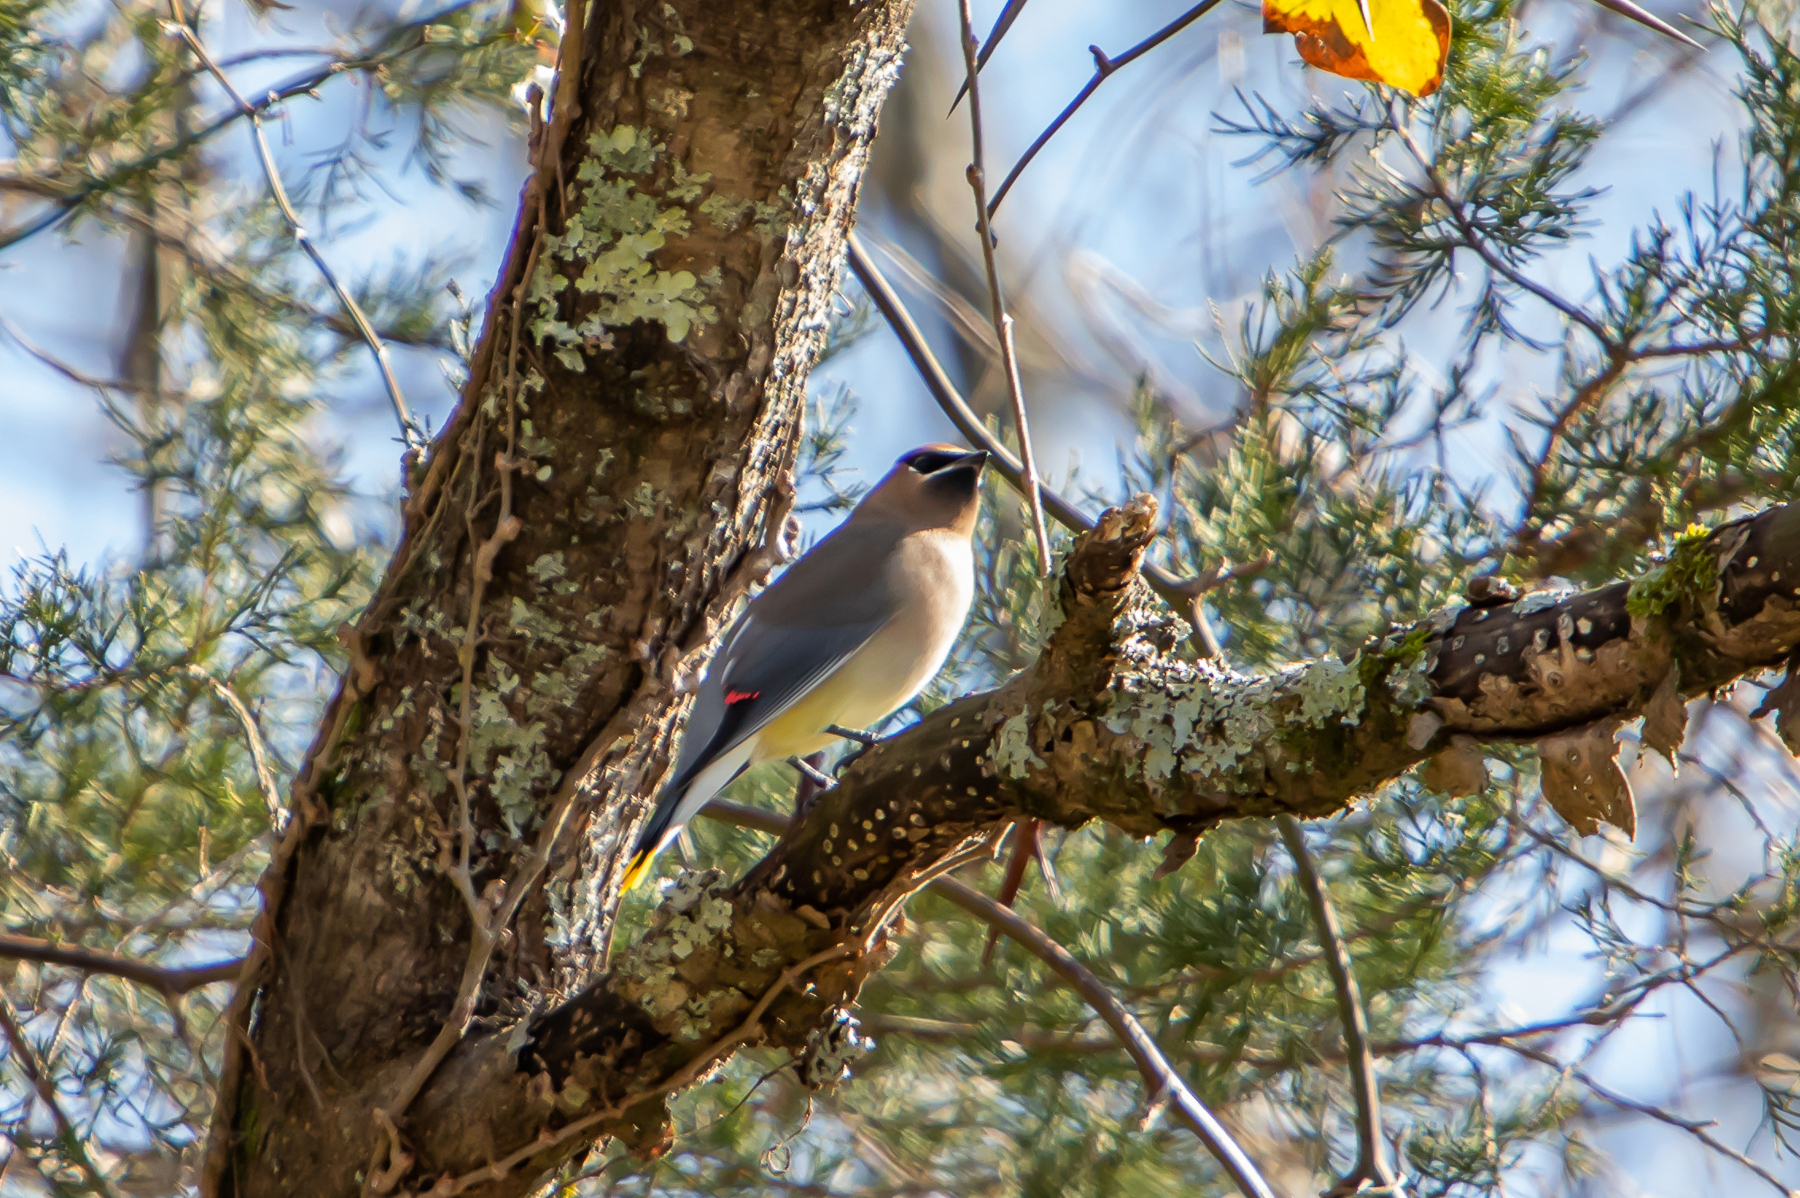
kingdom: Animalia
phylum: Chordata
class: Aves
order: Passeriformes
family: Bombycillidae
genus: Bombycilla
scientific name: Bombycilla cedrorum
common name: Cedar waxwing
